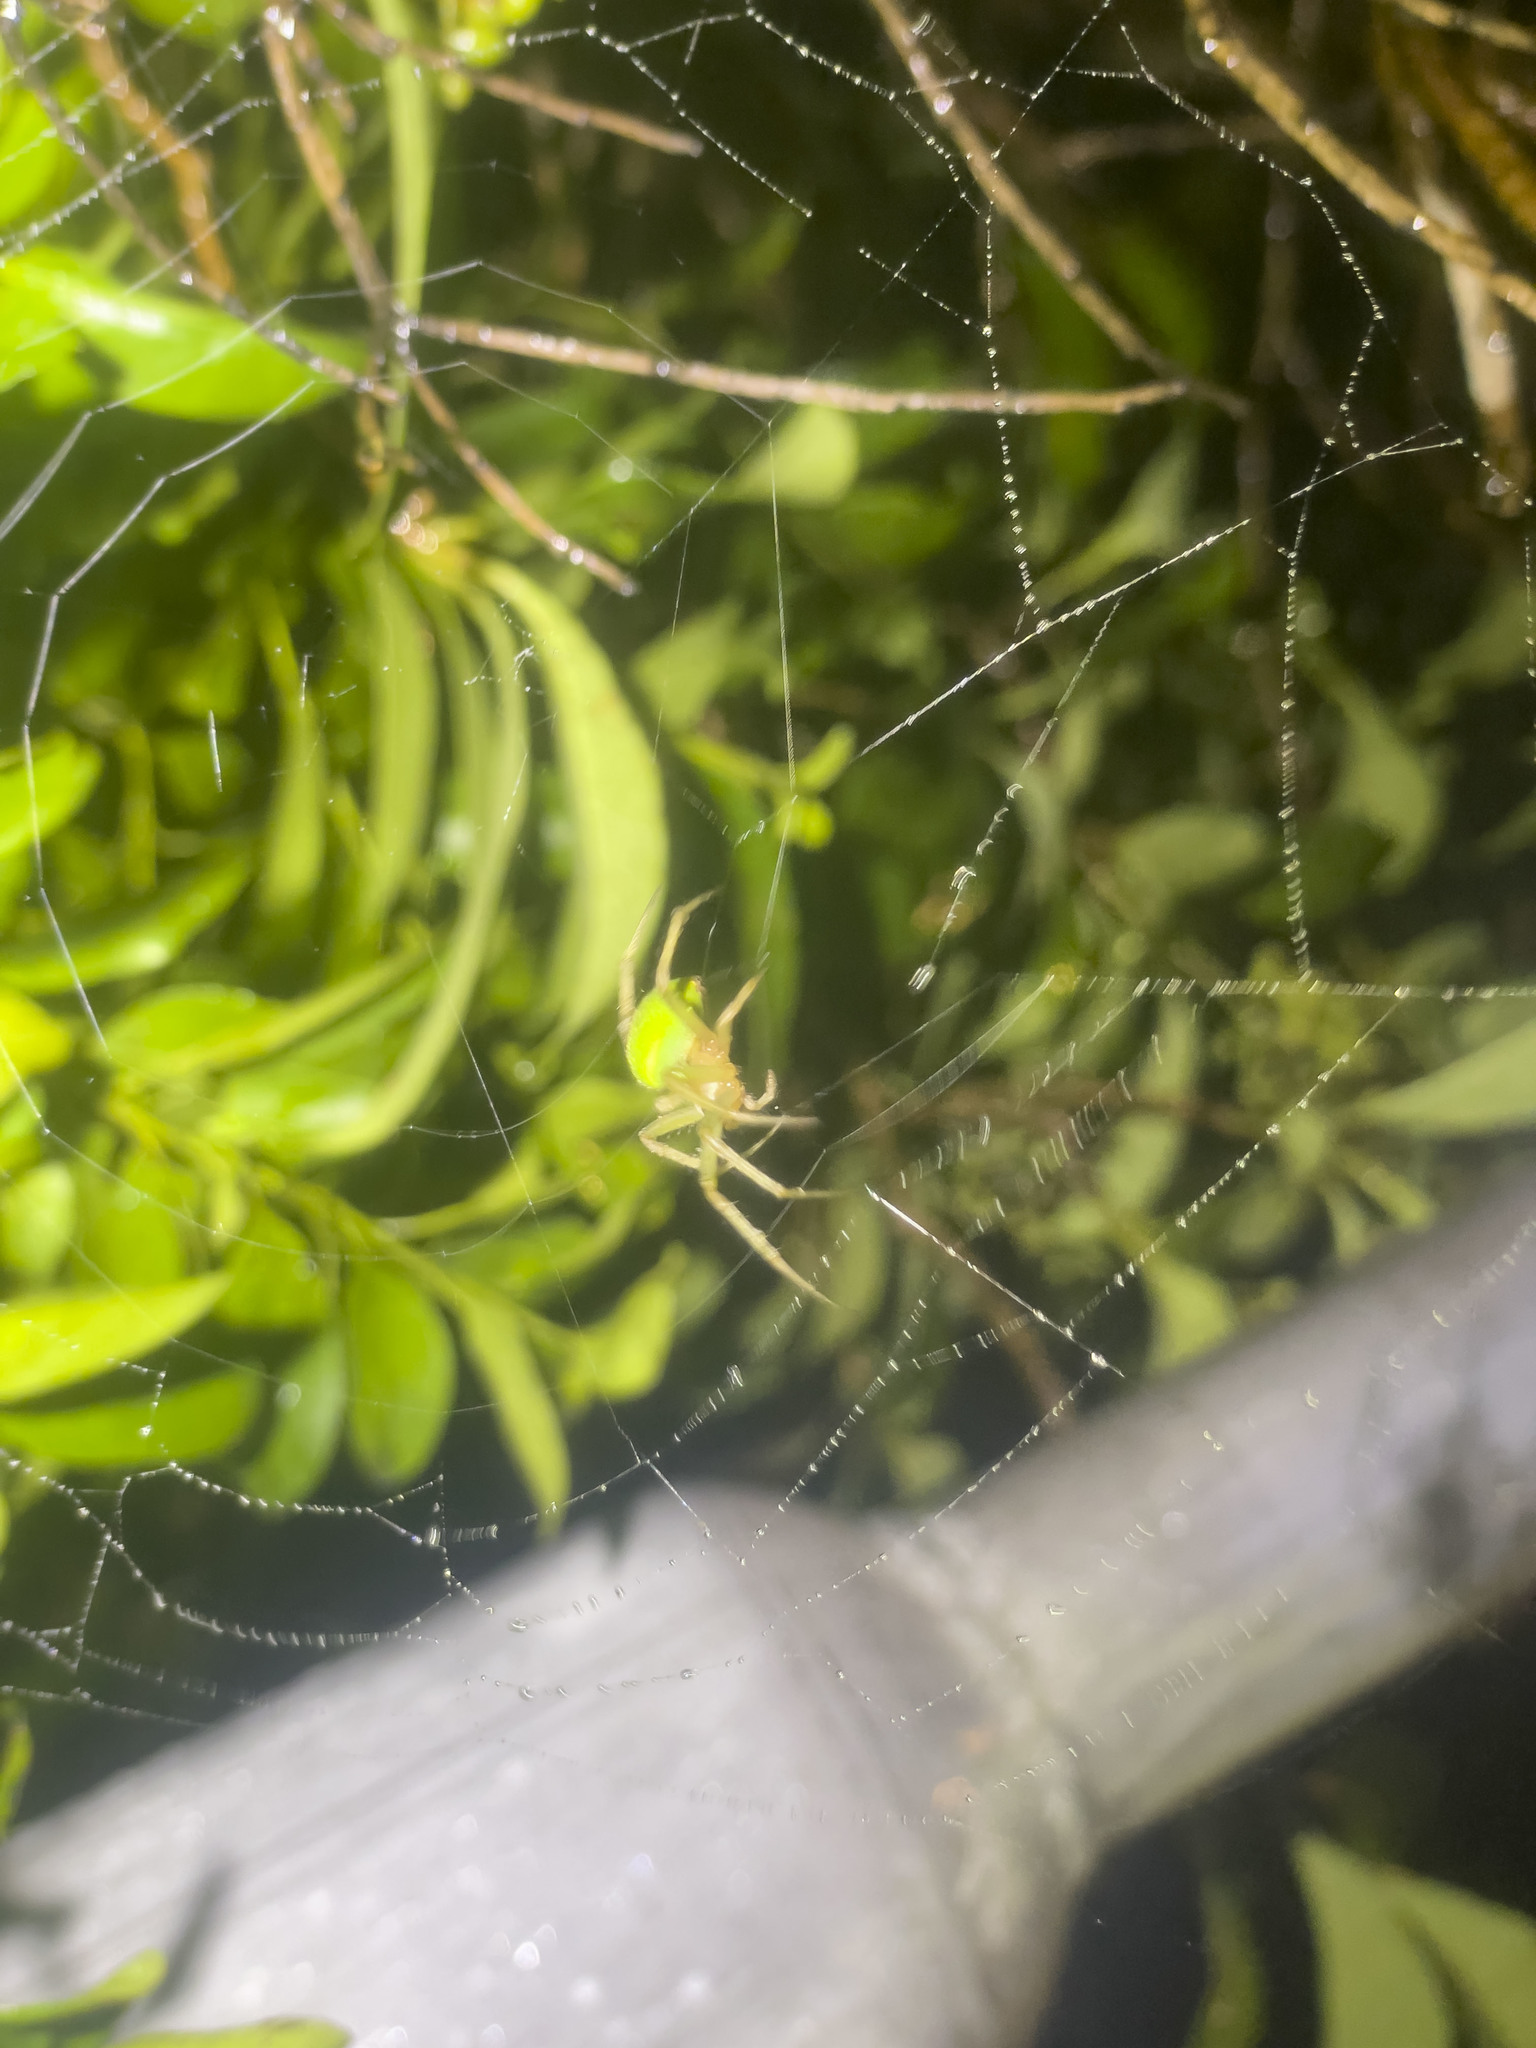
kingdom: Animalia
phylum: Arthropoda
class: Arachnida
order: Araneae
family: Araneidae
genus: Neoscona
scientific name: Neoscona scylloides
